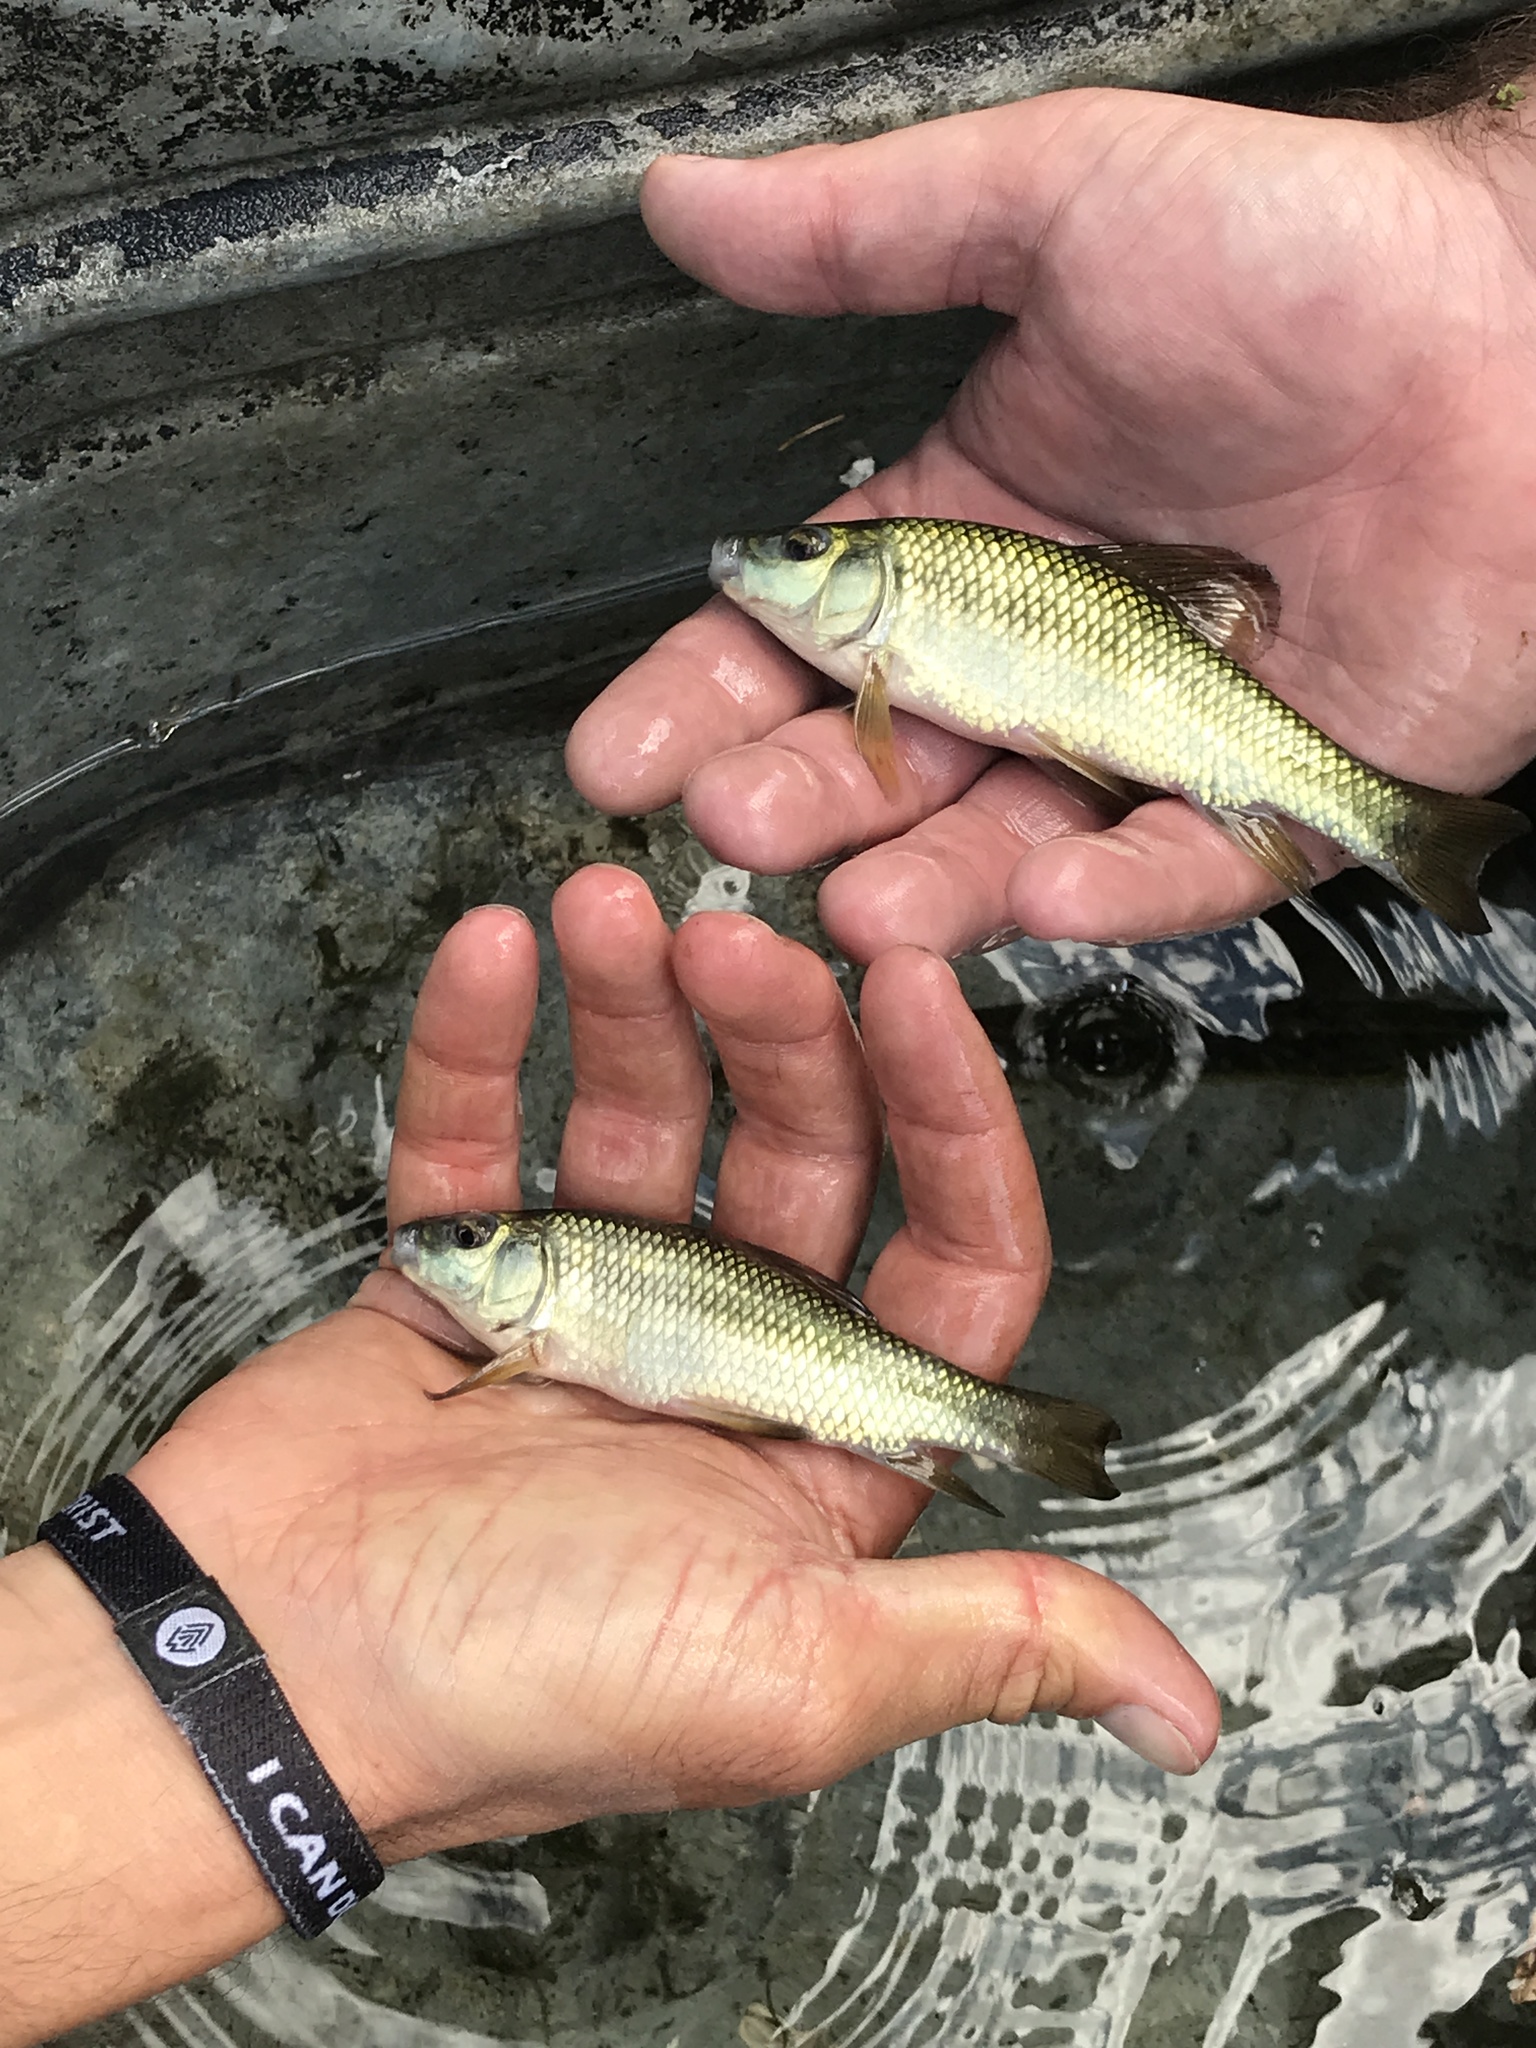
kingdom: Animalia
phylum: Chordata
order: Cypriniformes
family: Catostomidae
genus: Erimyzon
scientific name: Erimyzon sucetta
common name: Lake chubsucker
